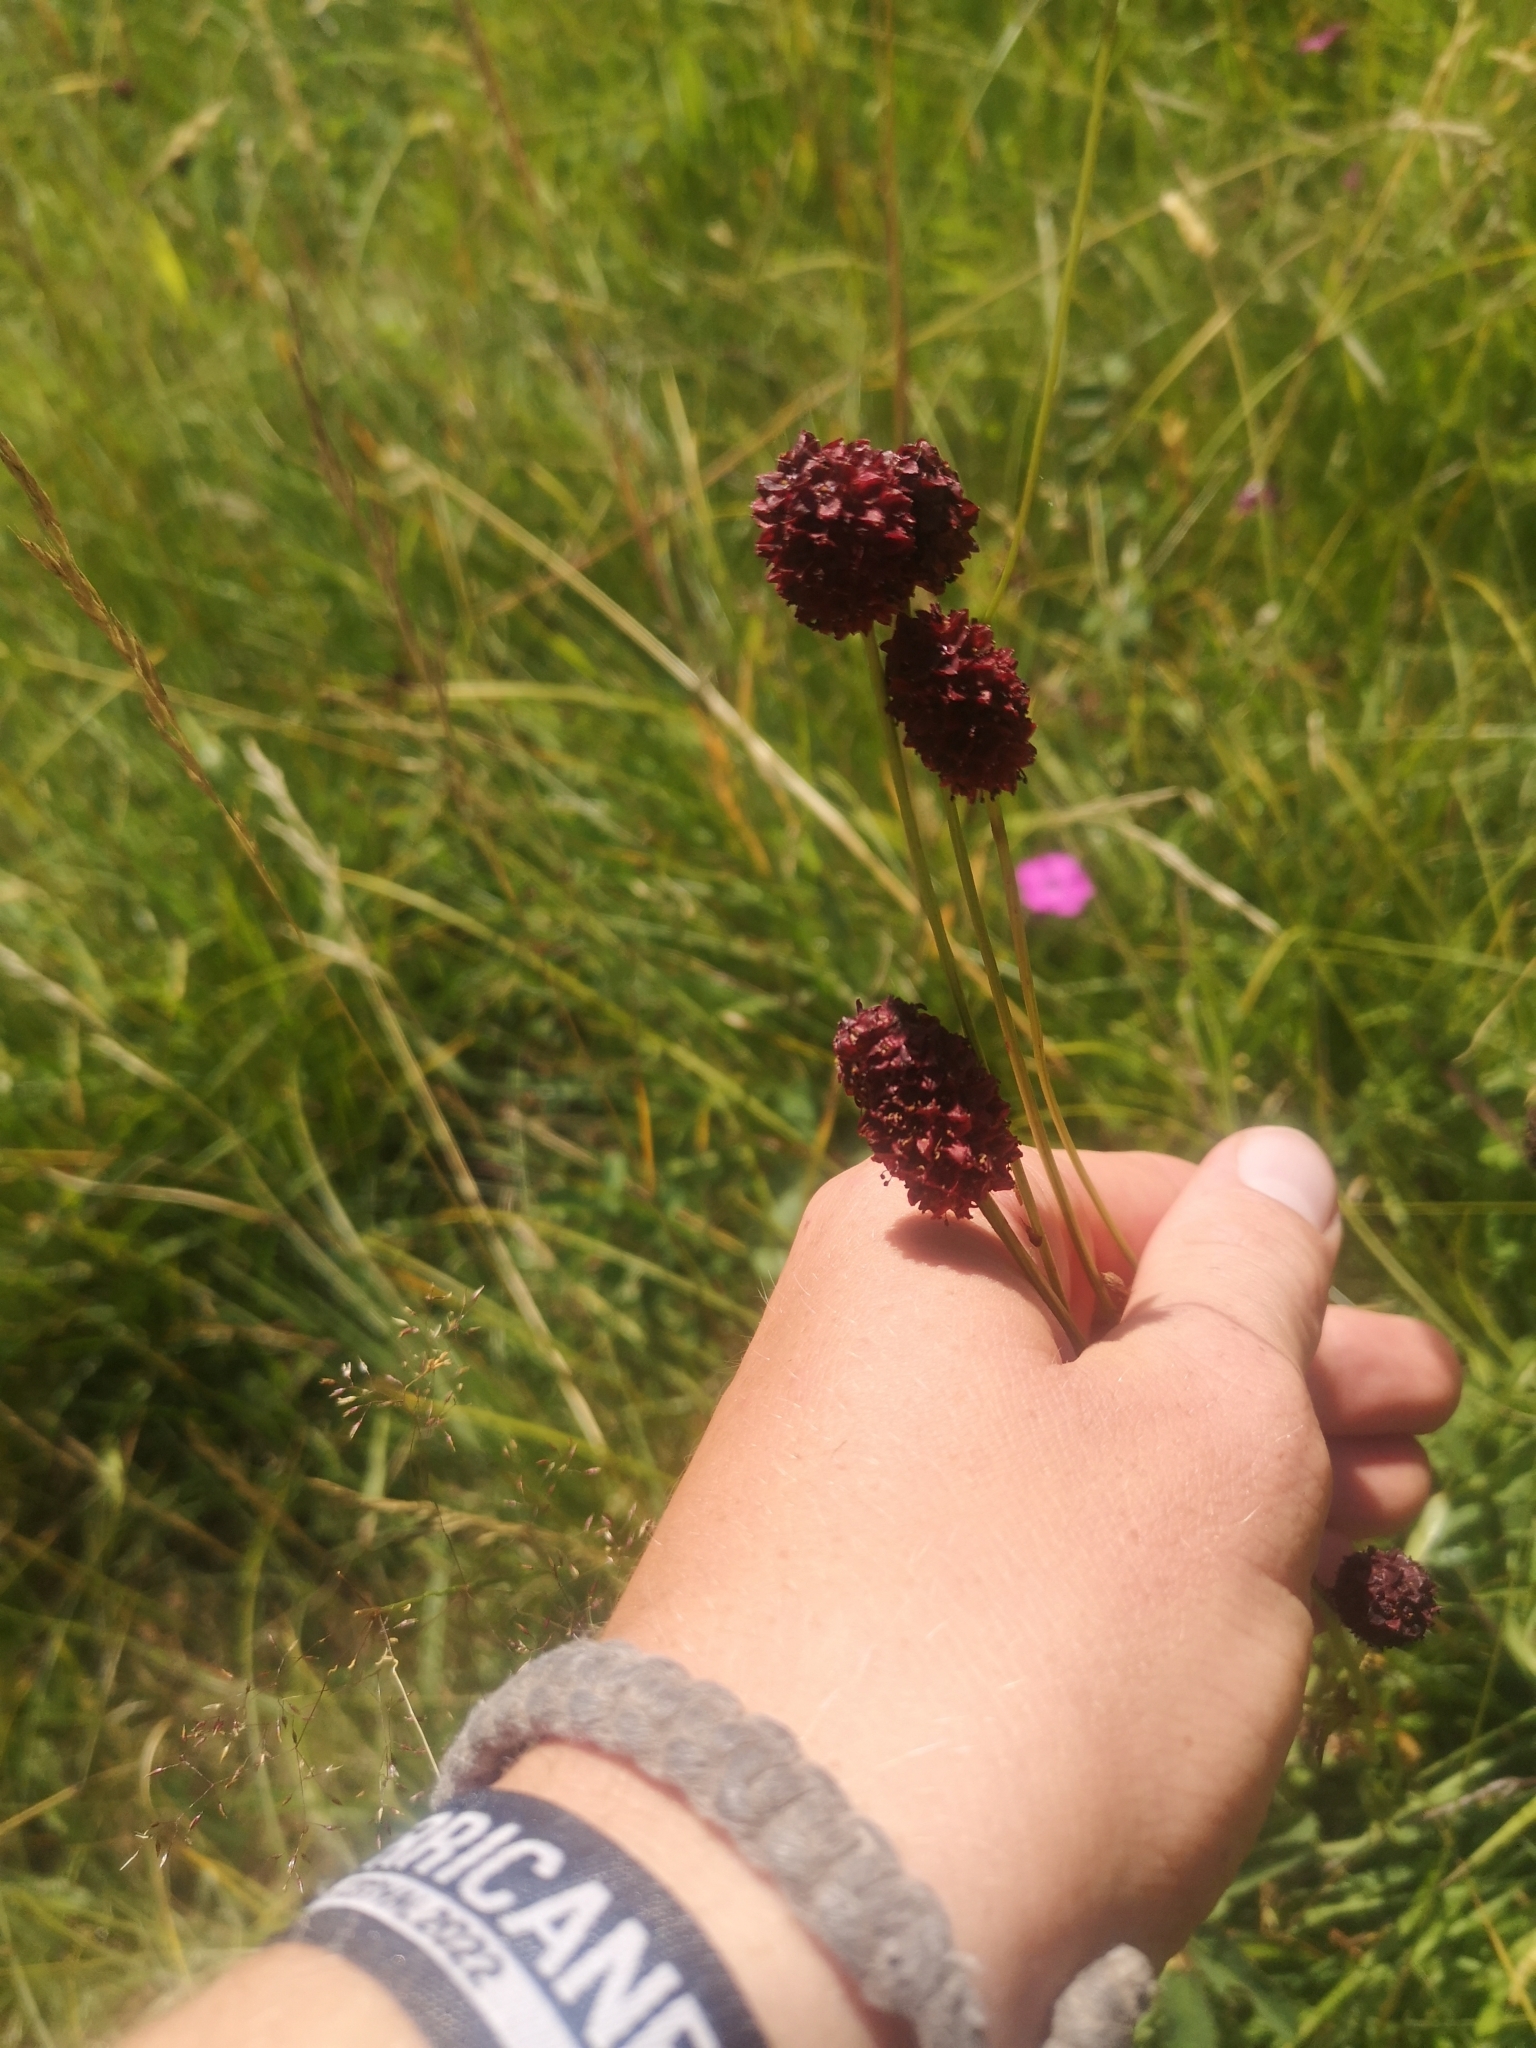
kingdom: Plantae
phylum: Tracheophyta
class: Magnoliopsida
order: Rosales
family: Rosaceae
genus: Sanguisorba
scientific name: Sanguisorba officinalis
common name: Great burnet
